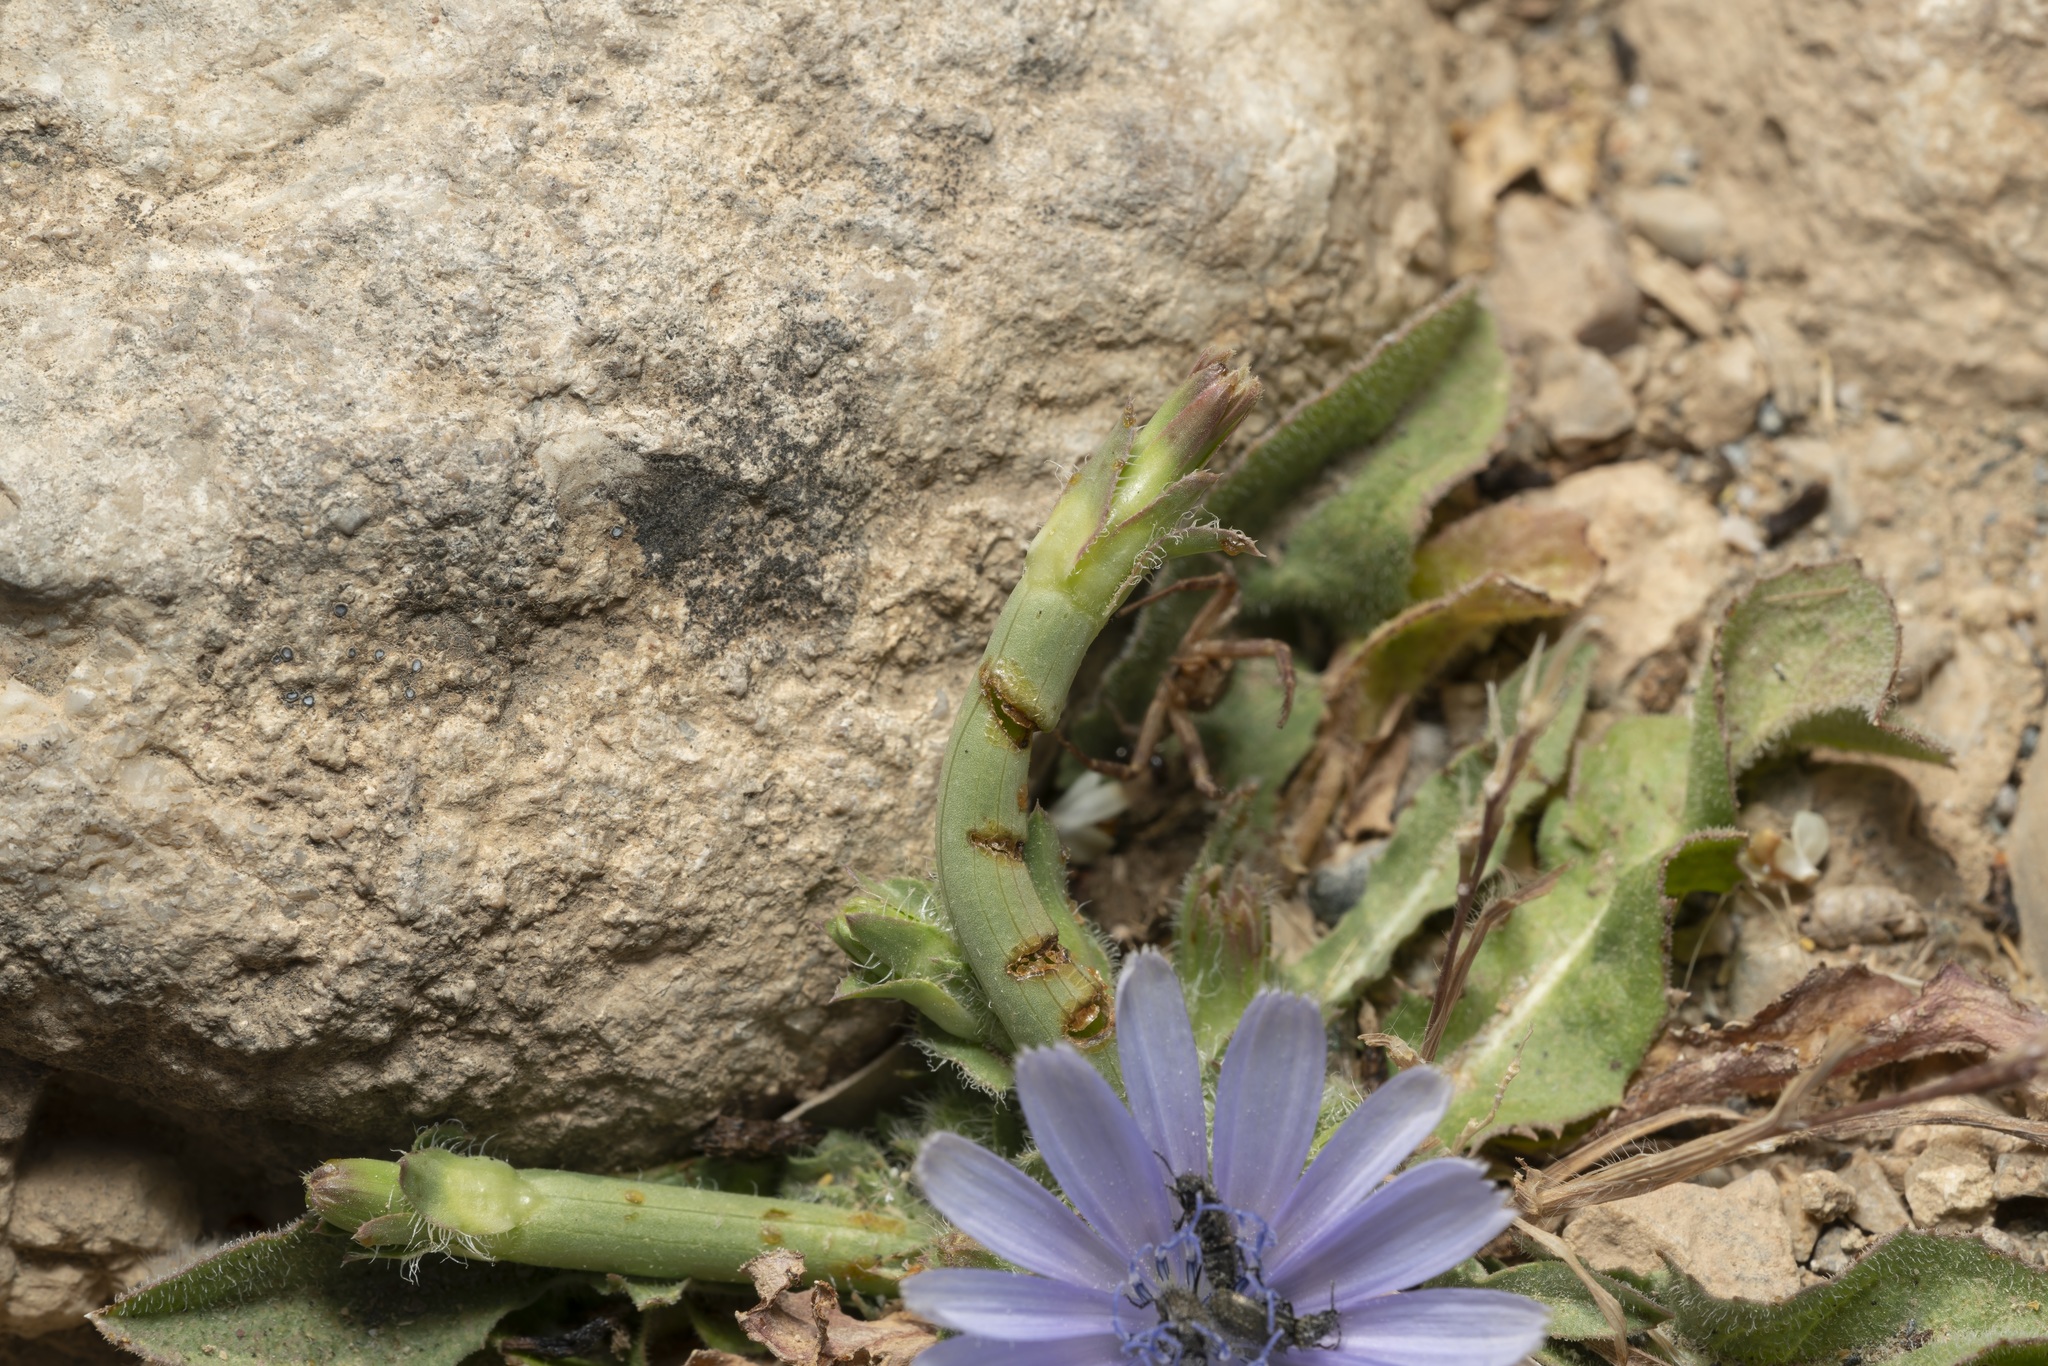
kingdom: Plantae
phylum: Tracheophyta
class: Magnoliopsida
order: Asterales
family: Asteraceae
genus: Cichorium
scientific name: Cichorium pumilum
